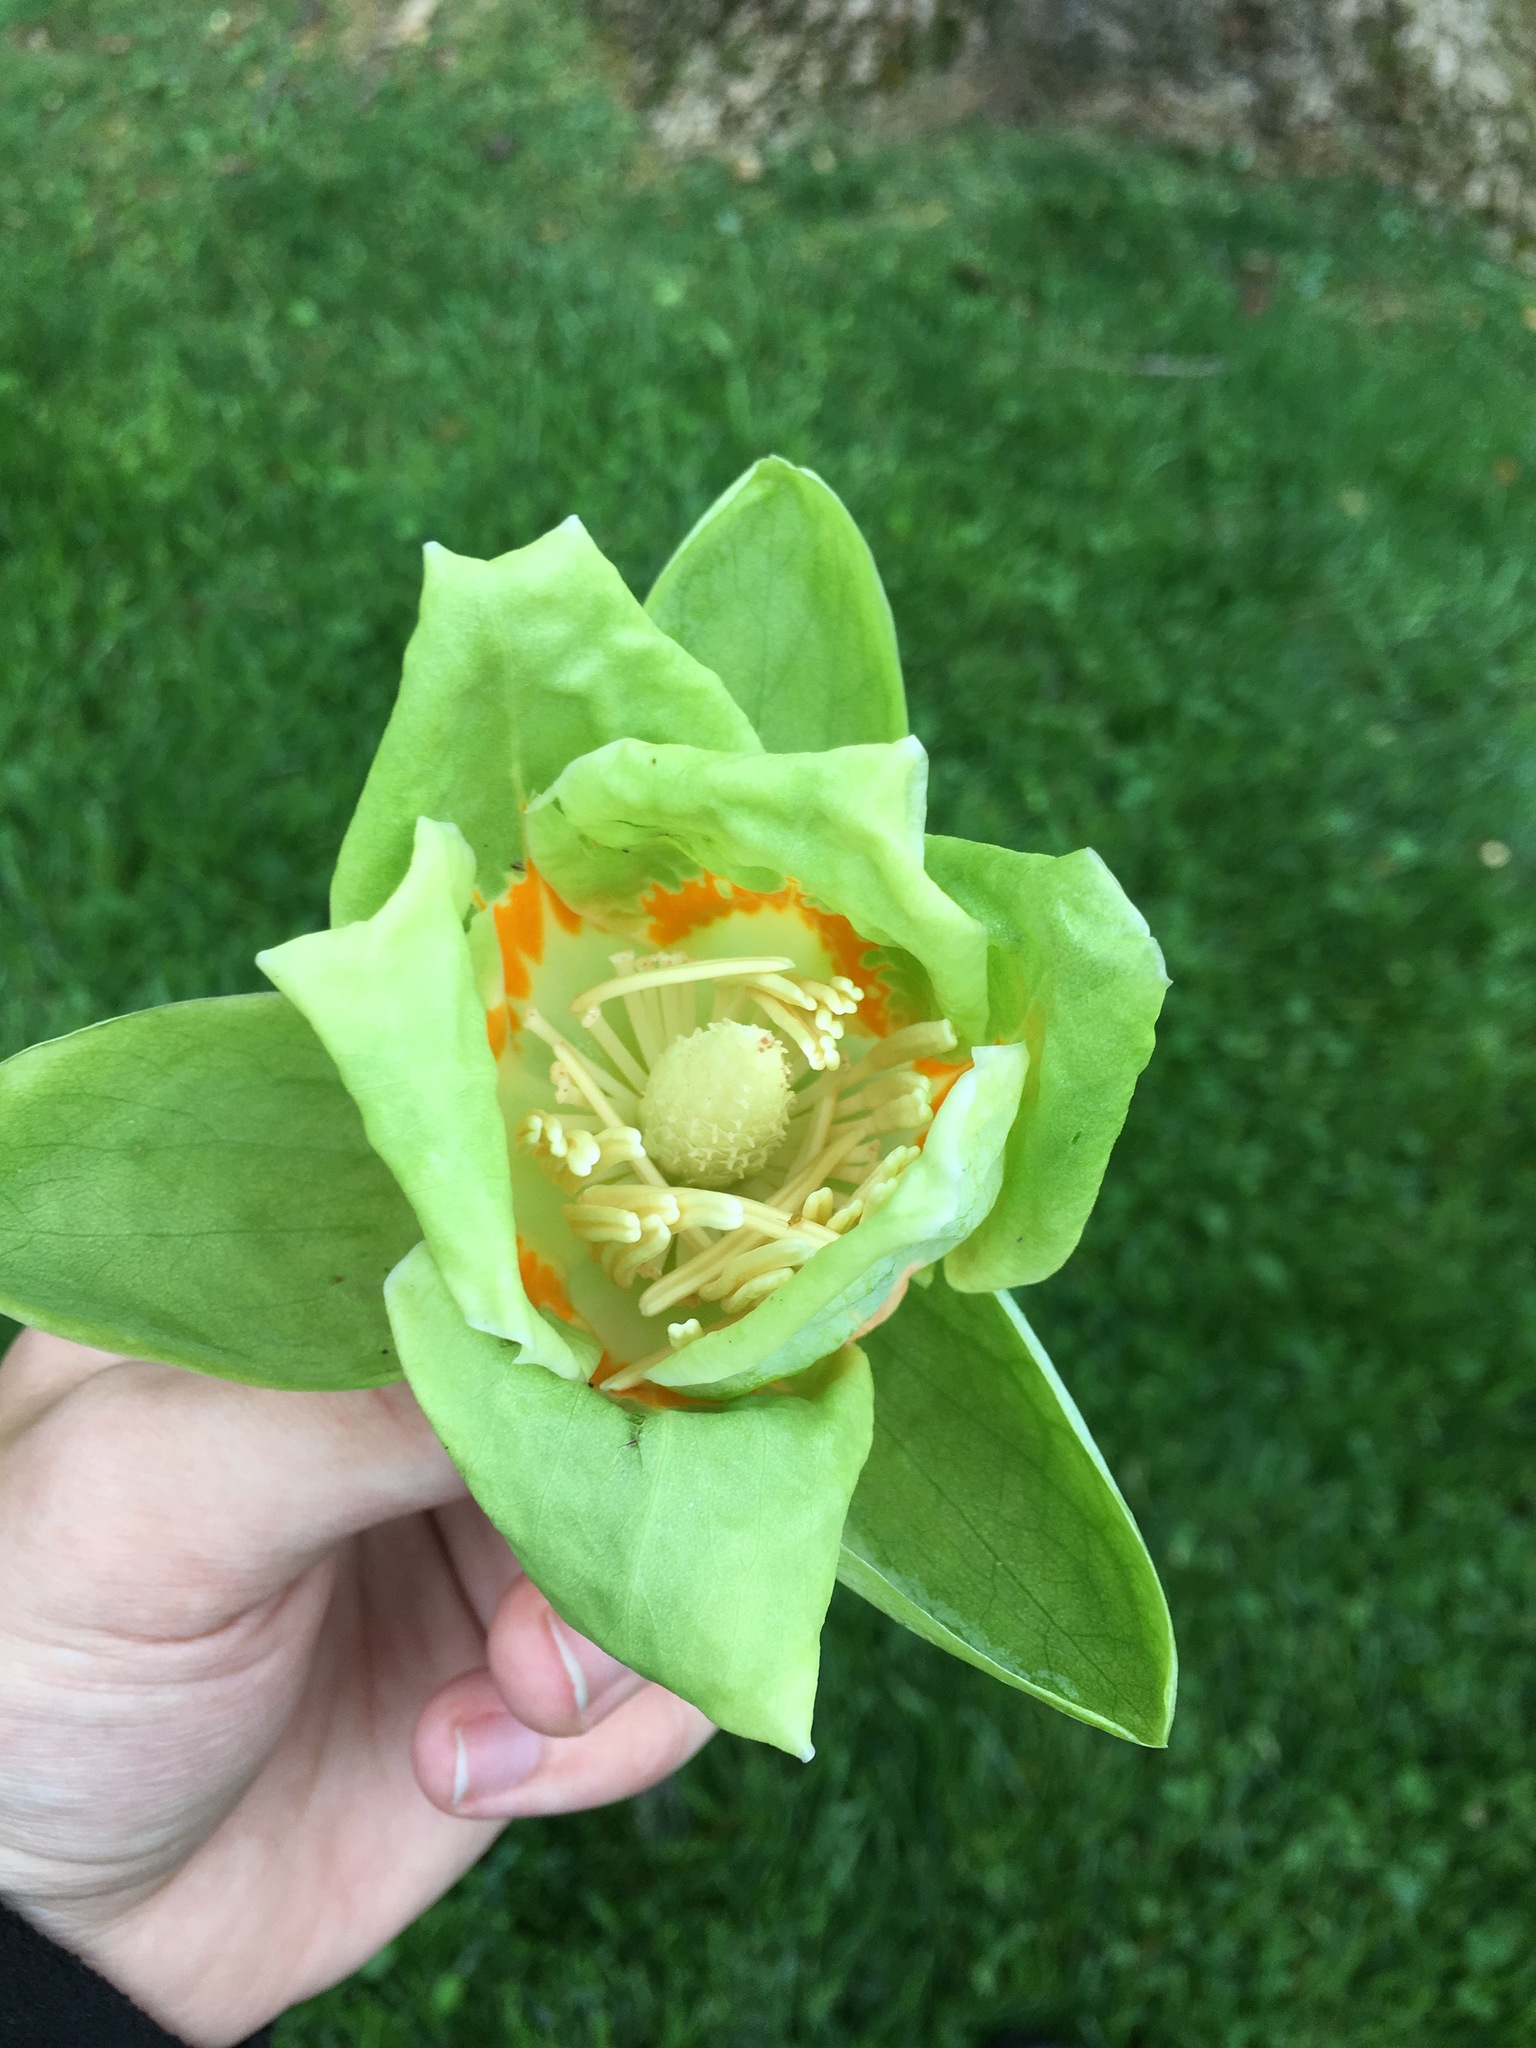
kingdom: Plantae
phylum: Tracheophyta
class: Magnoliopsida
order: Magnoliales
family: Magnoliaceae
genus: Liriodendron
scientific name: Liriodendron tulipifera
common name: Tulip tree
